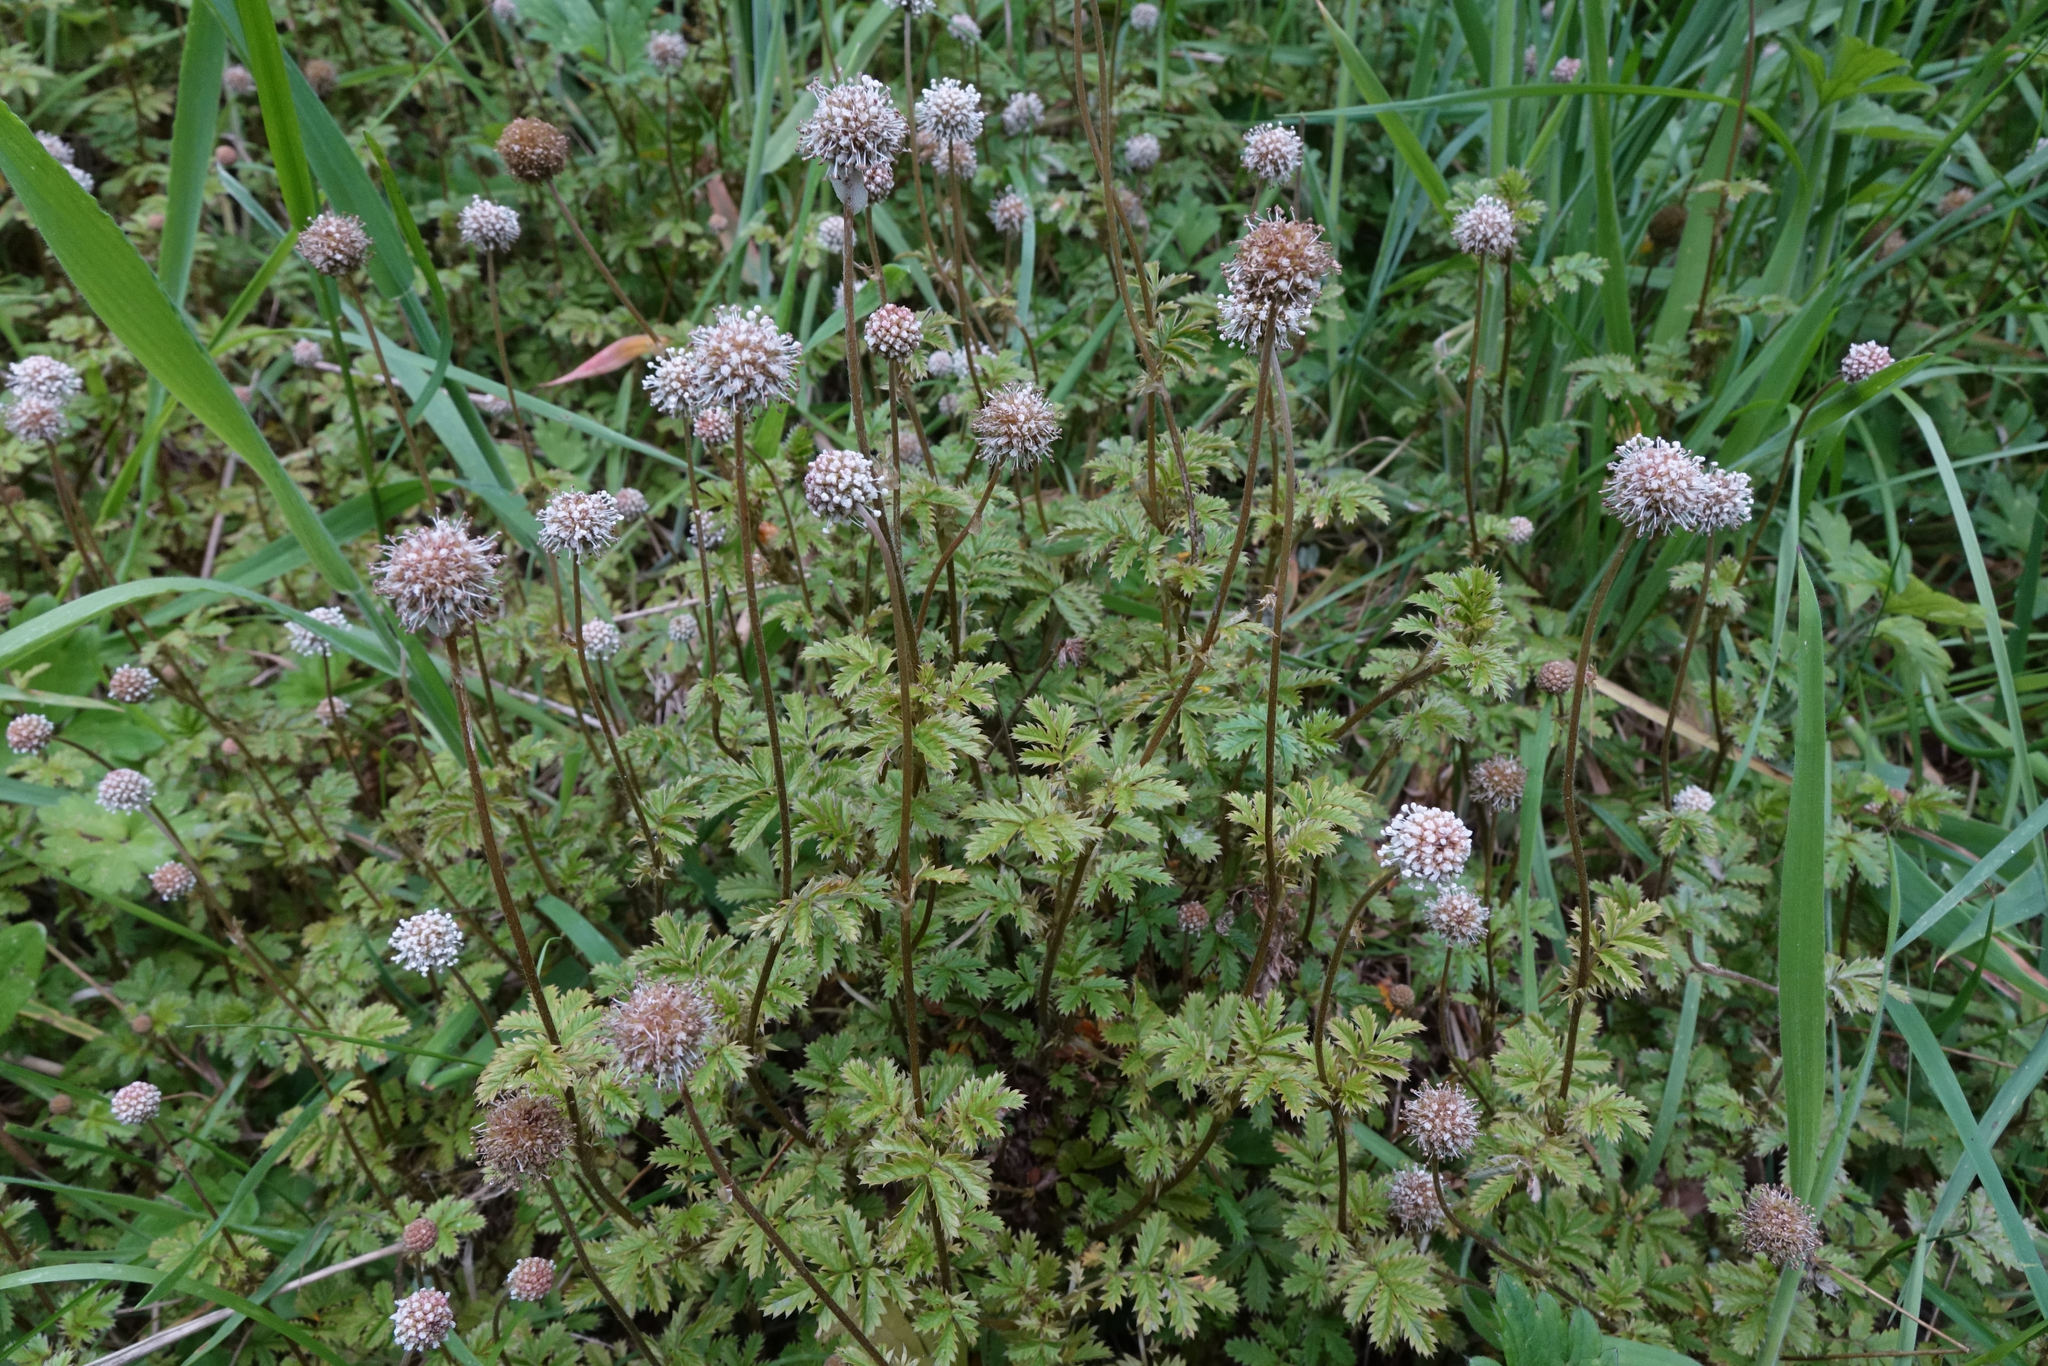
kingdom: Plantae
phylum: Tracheophyta
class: Magnoliopsida
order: Rosales
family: Rosaceae
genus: Acaena
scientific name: Acaena anserinifolia
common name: Bronze pirri-pirri-bur
